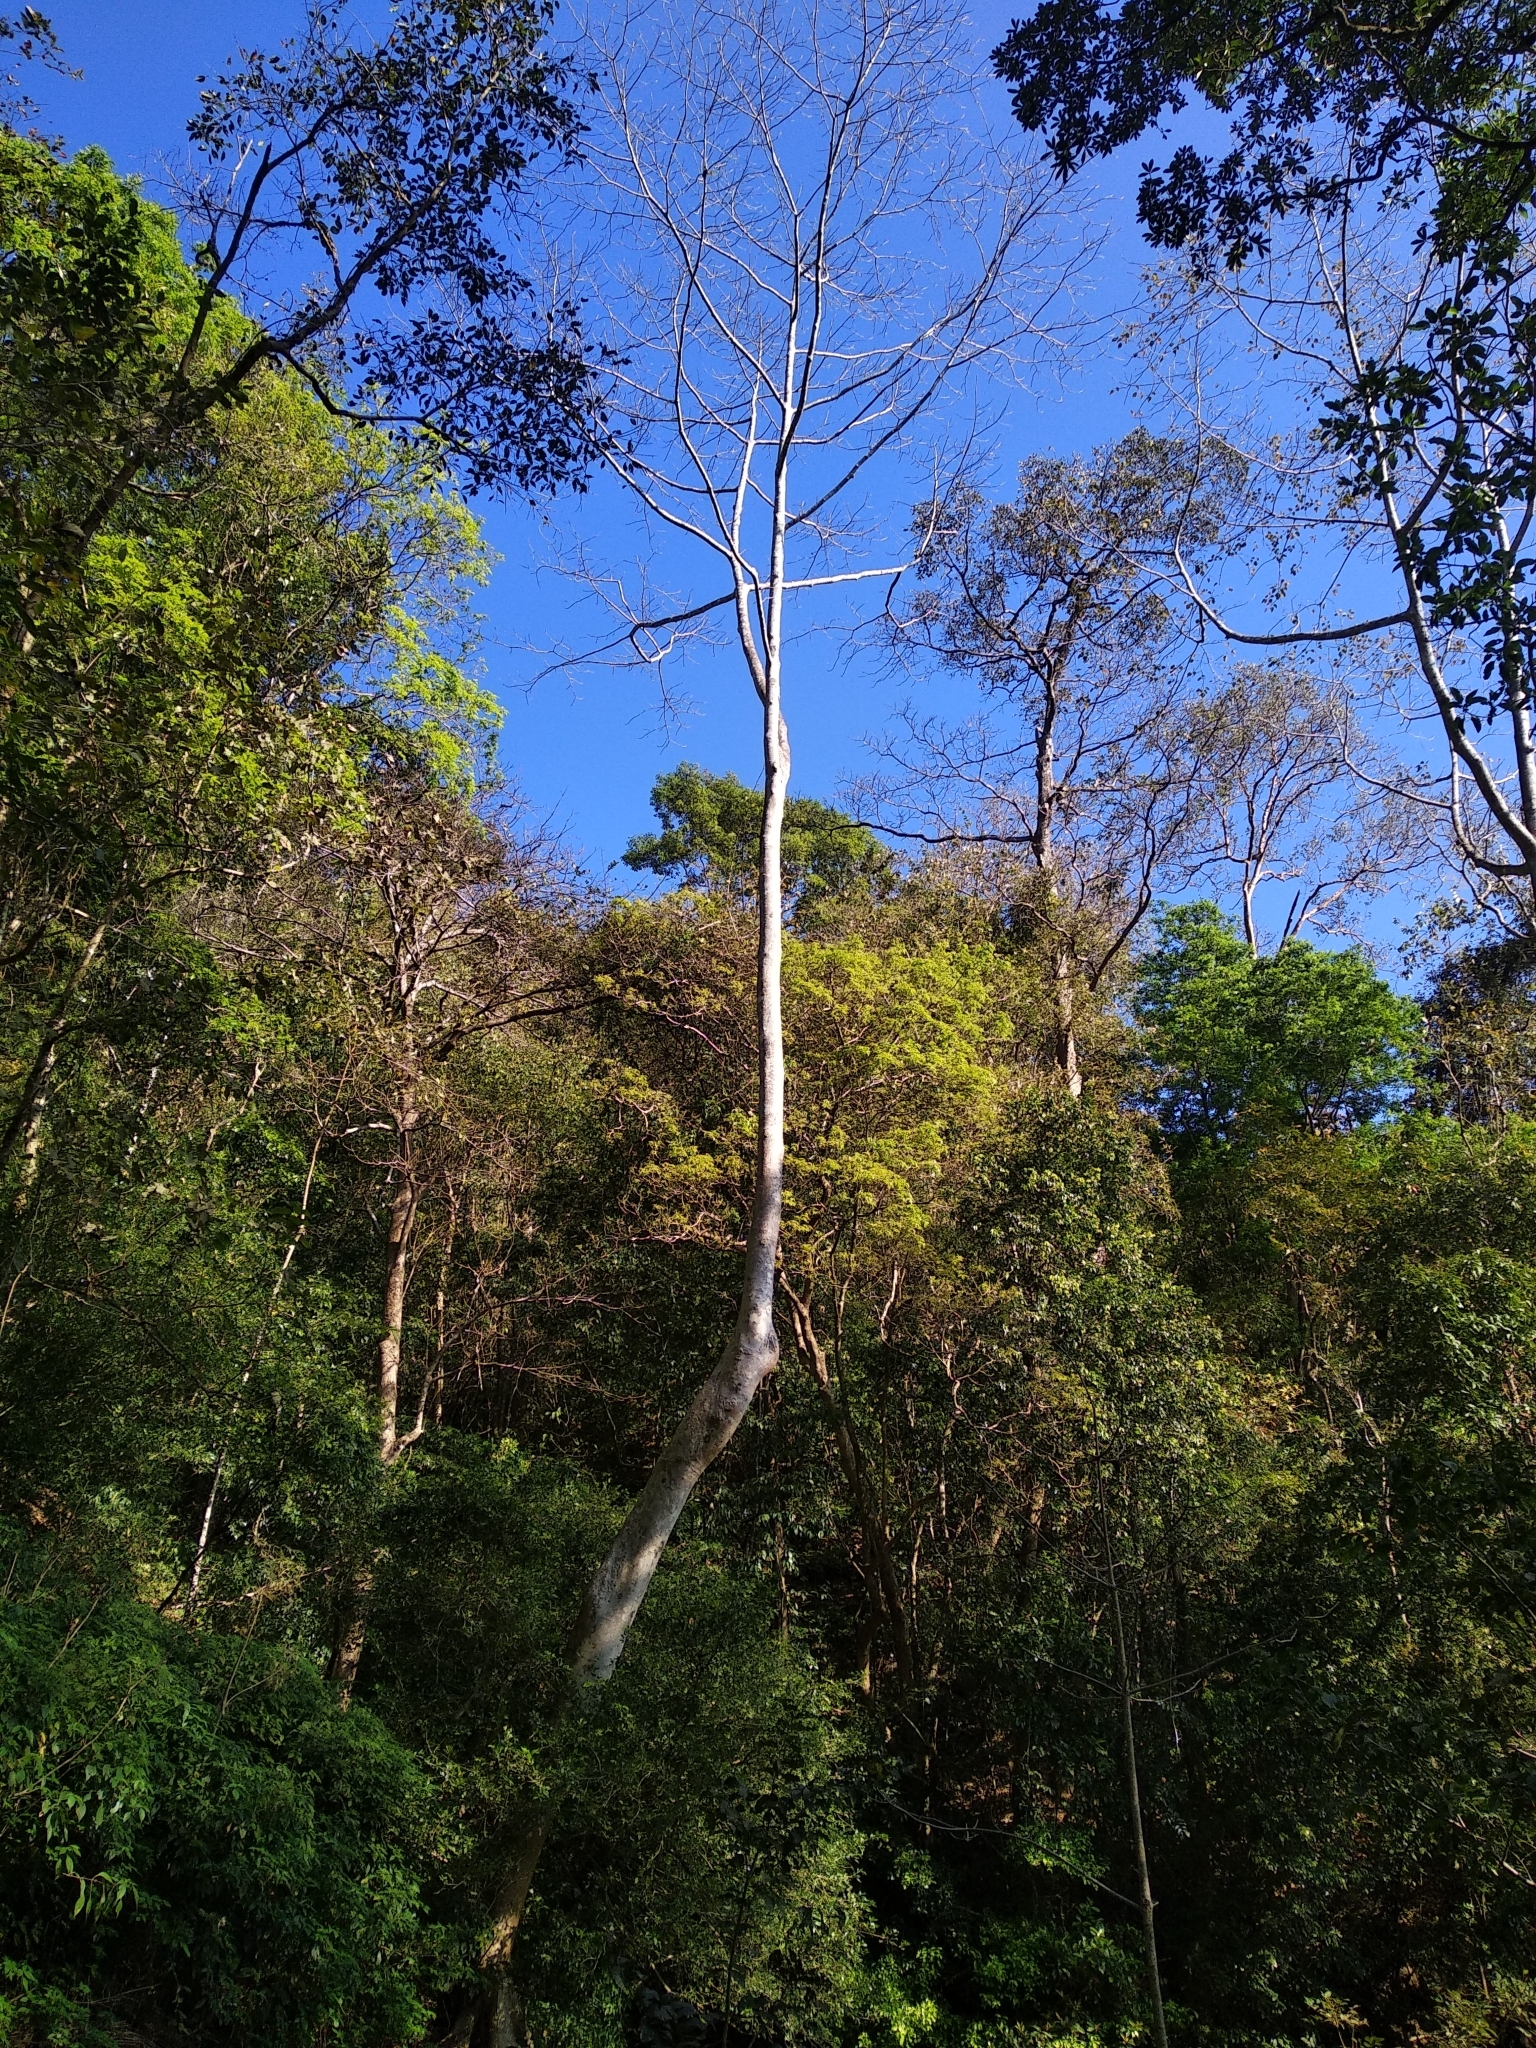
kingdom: Plantae
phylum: Tracheophyta
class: Magnoliopsida
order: Cucurbitales
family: Tetramelaceae
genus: Tetrameles
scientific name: Tetrameles nudiflora
